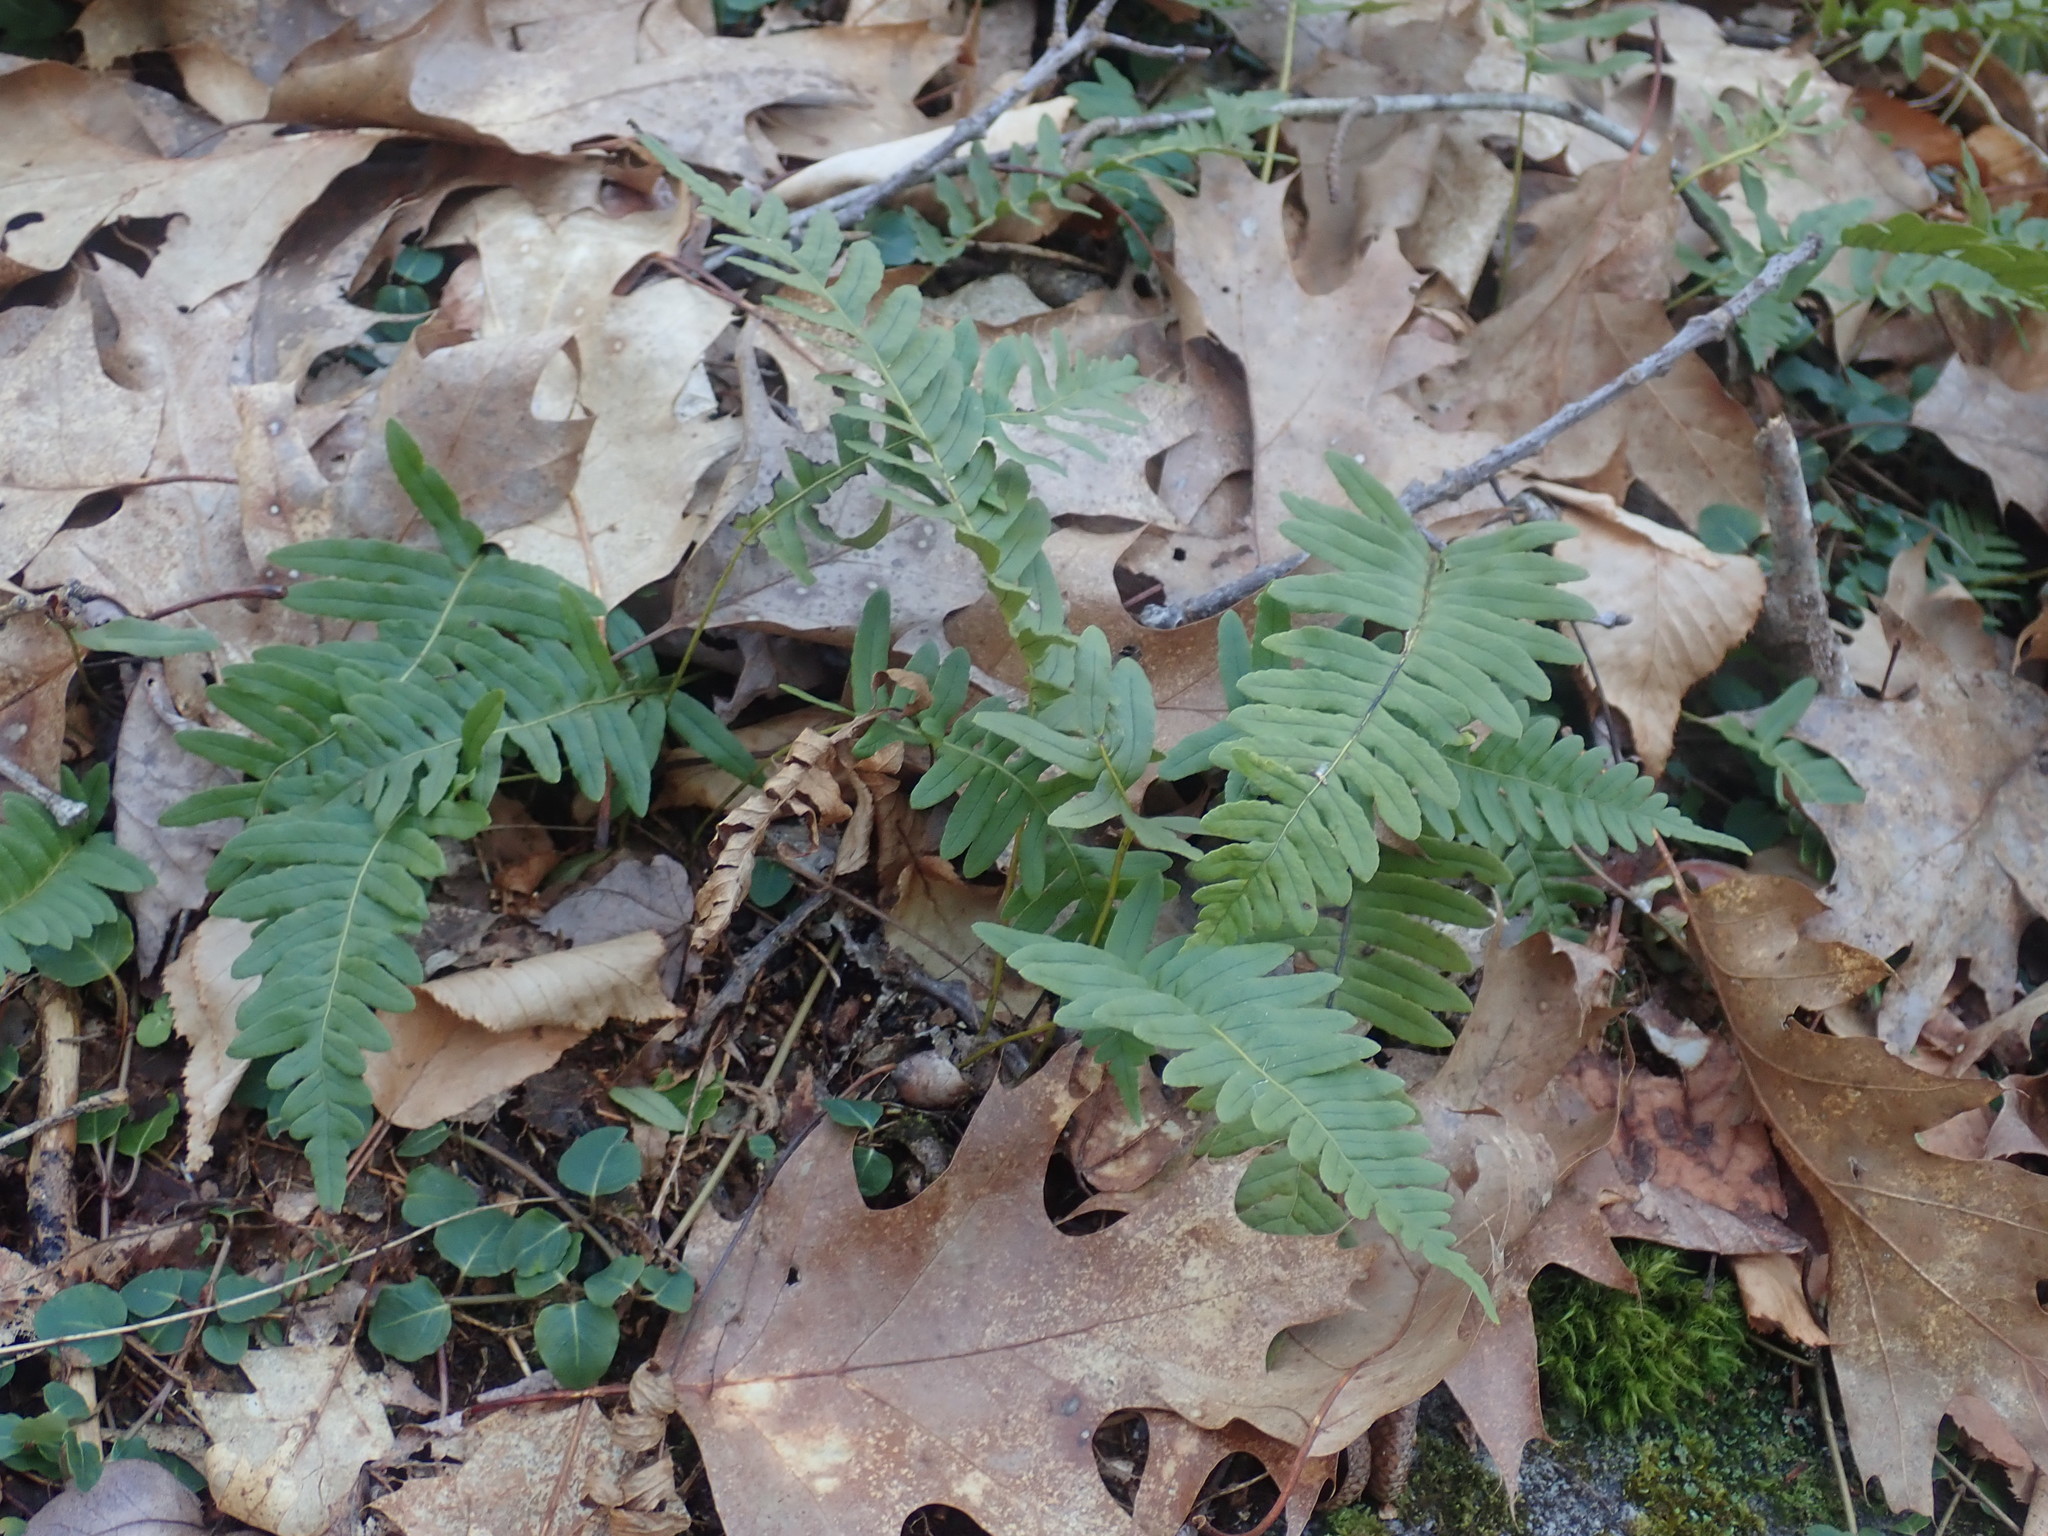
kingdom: Plantae
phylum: Tracheophyta
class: Polypodiopsida
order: Polypodiales
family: Polypodiaceae
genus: Polypodium
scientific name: Polypodium
